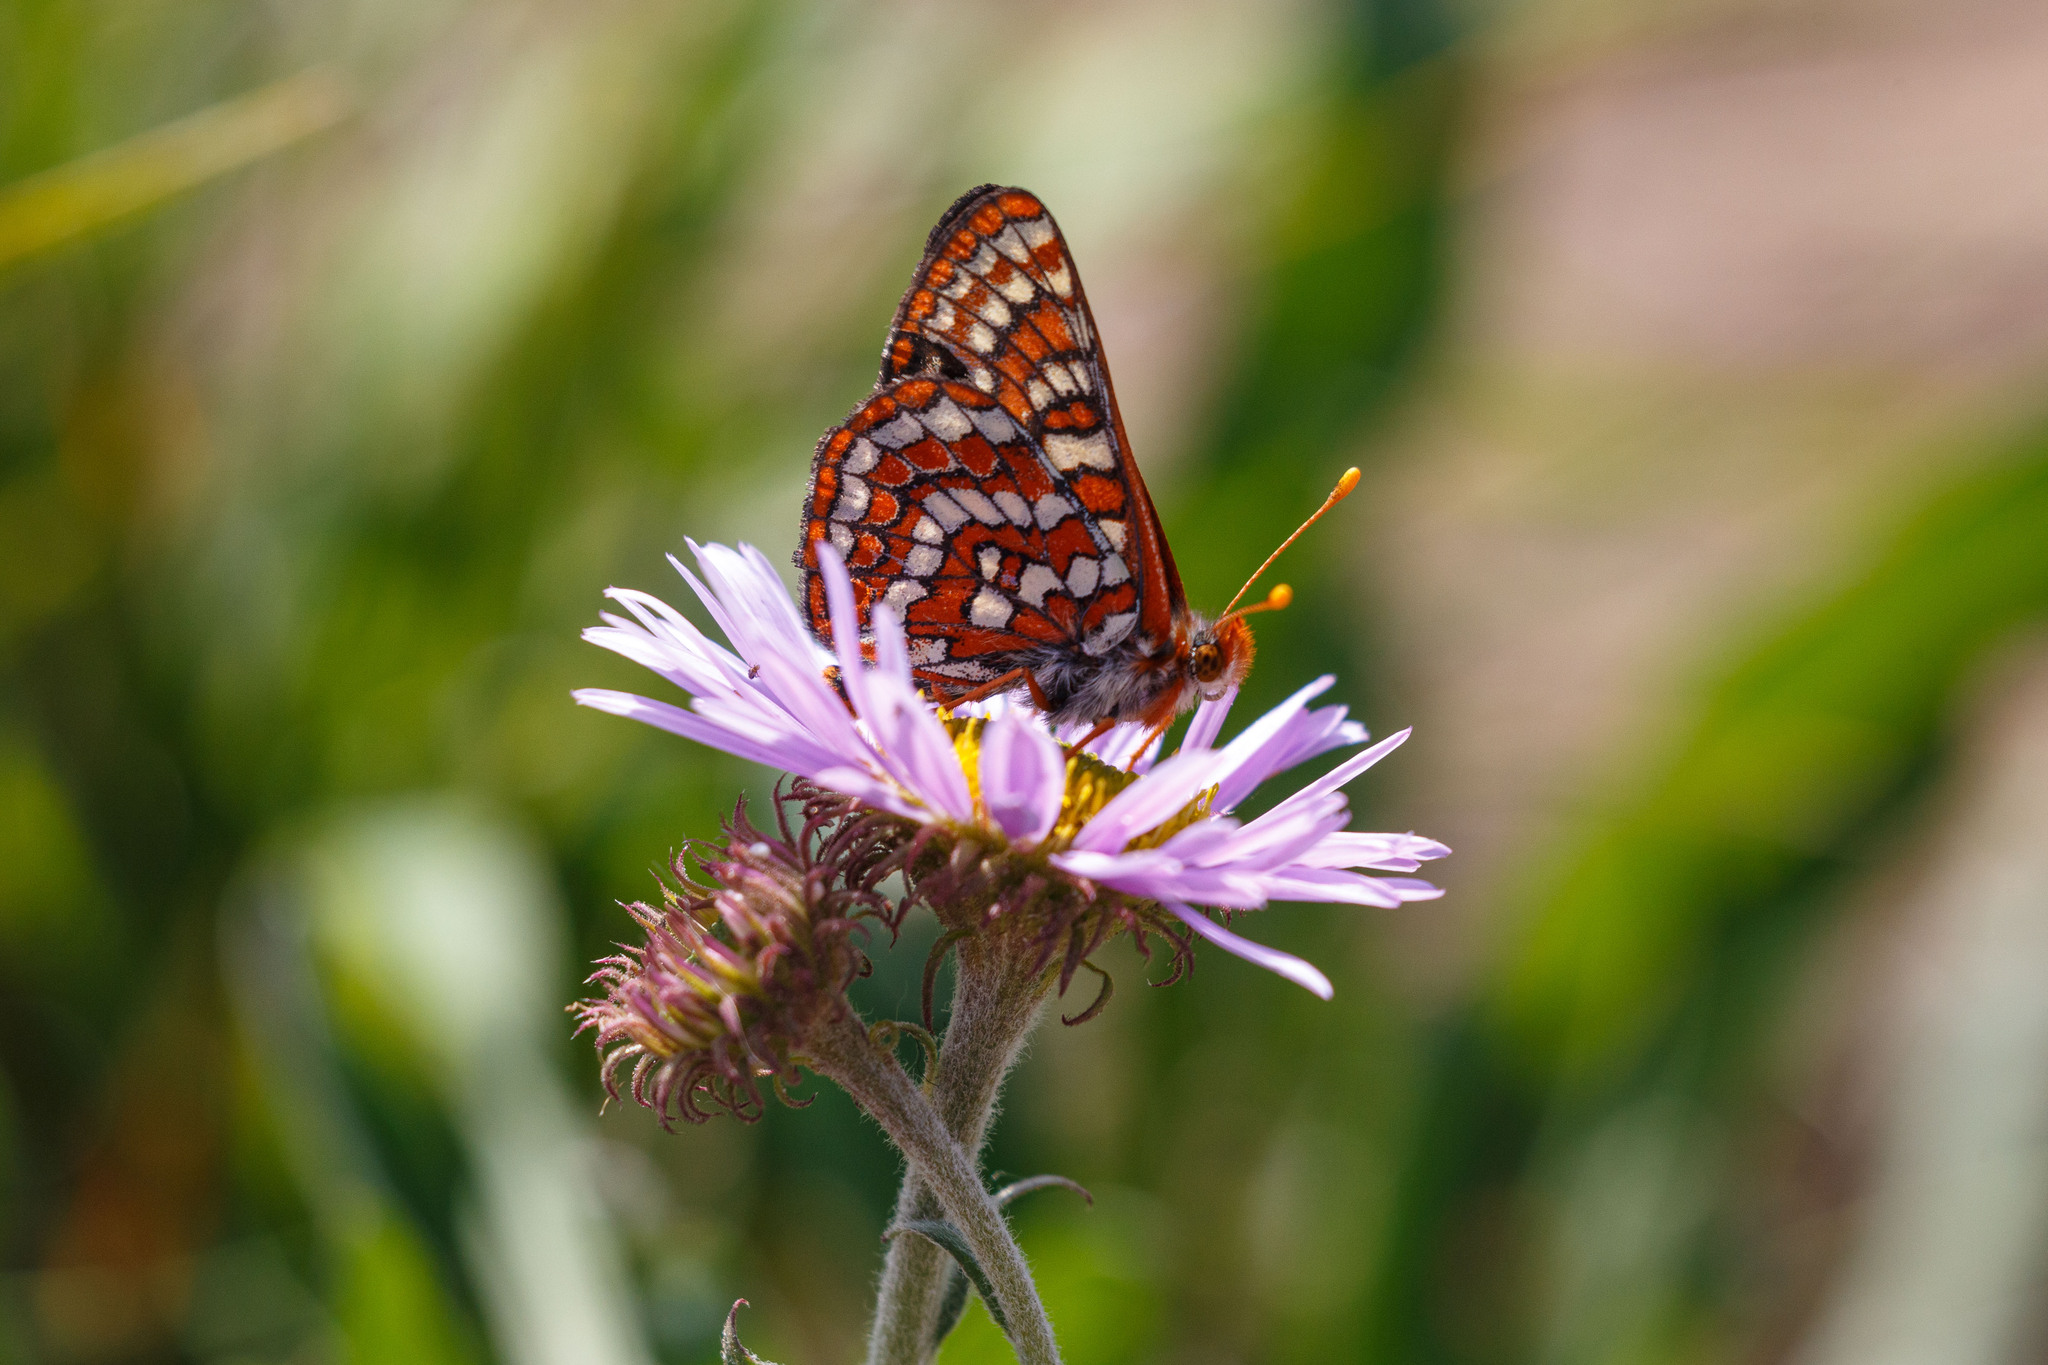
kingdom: Animalia
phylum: Arthropoda
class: Insecta
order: Lepidoptera
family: Nymphalidae
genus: Occidryas
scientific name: Occidryas editha
